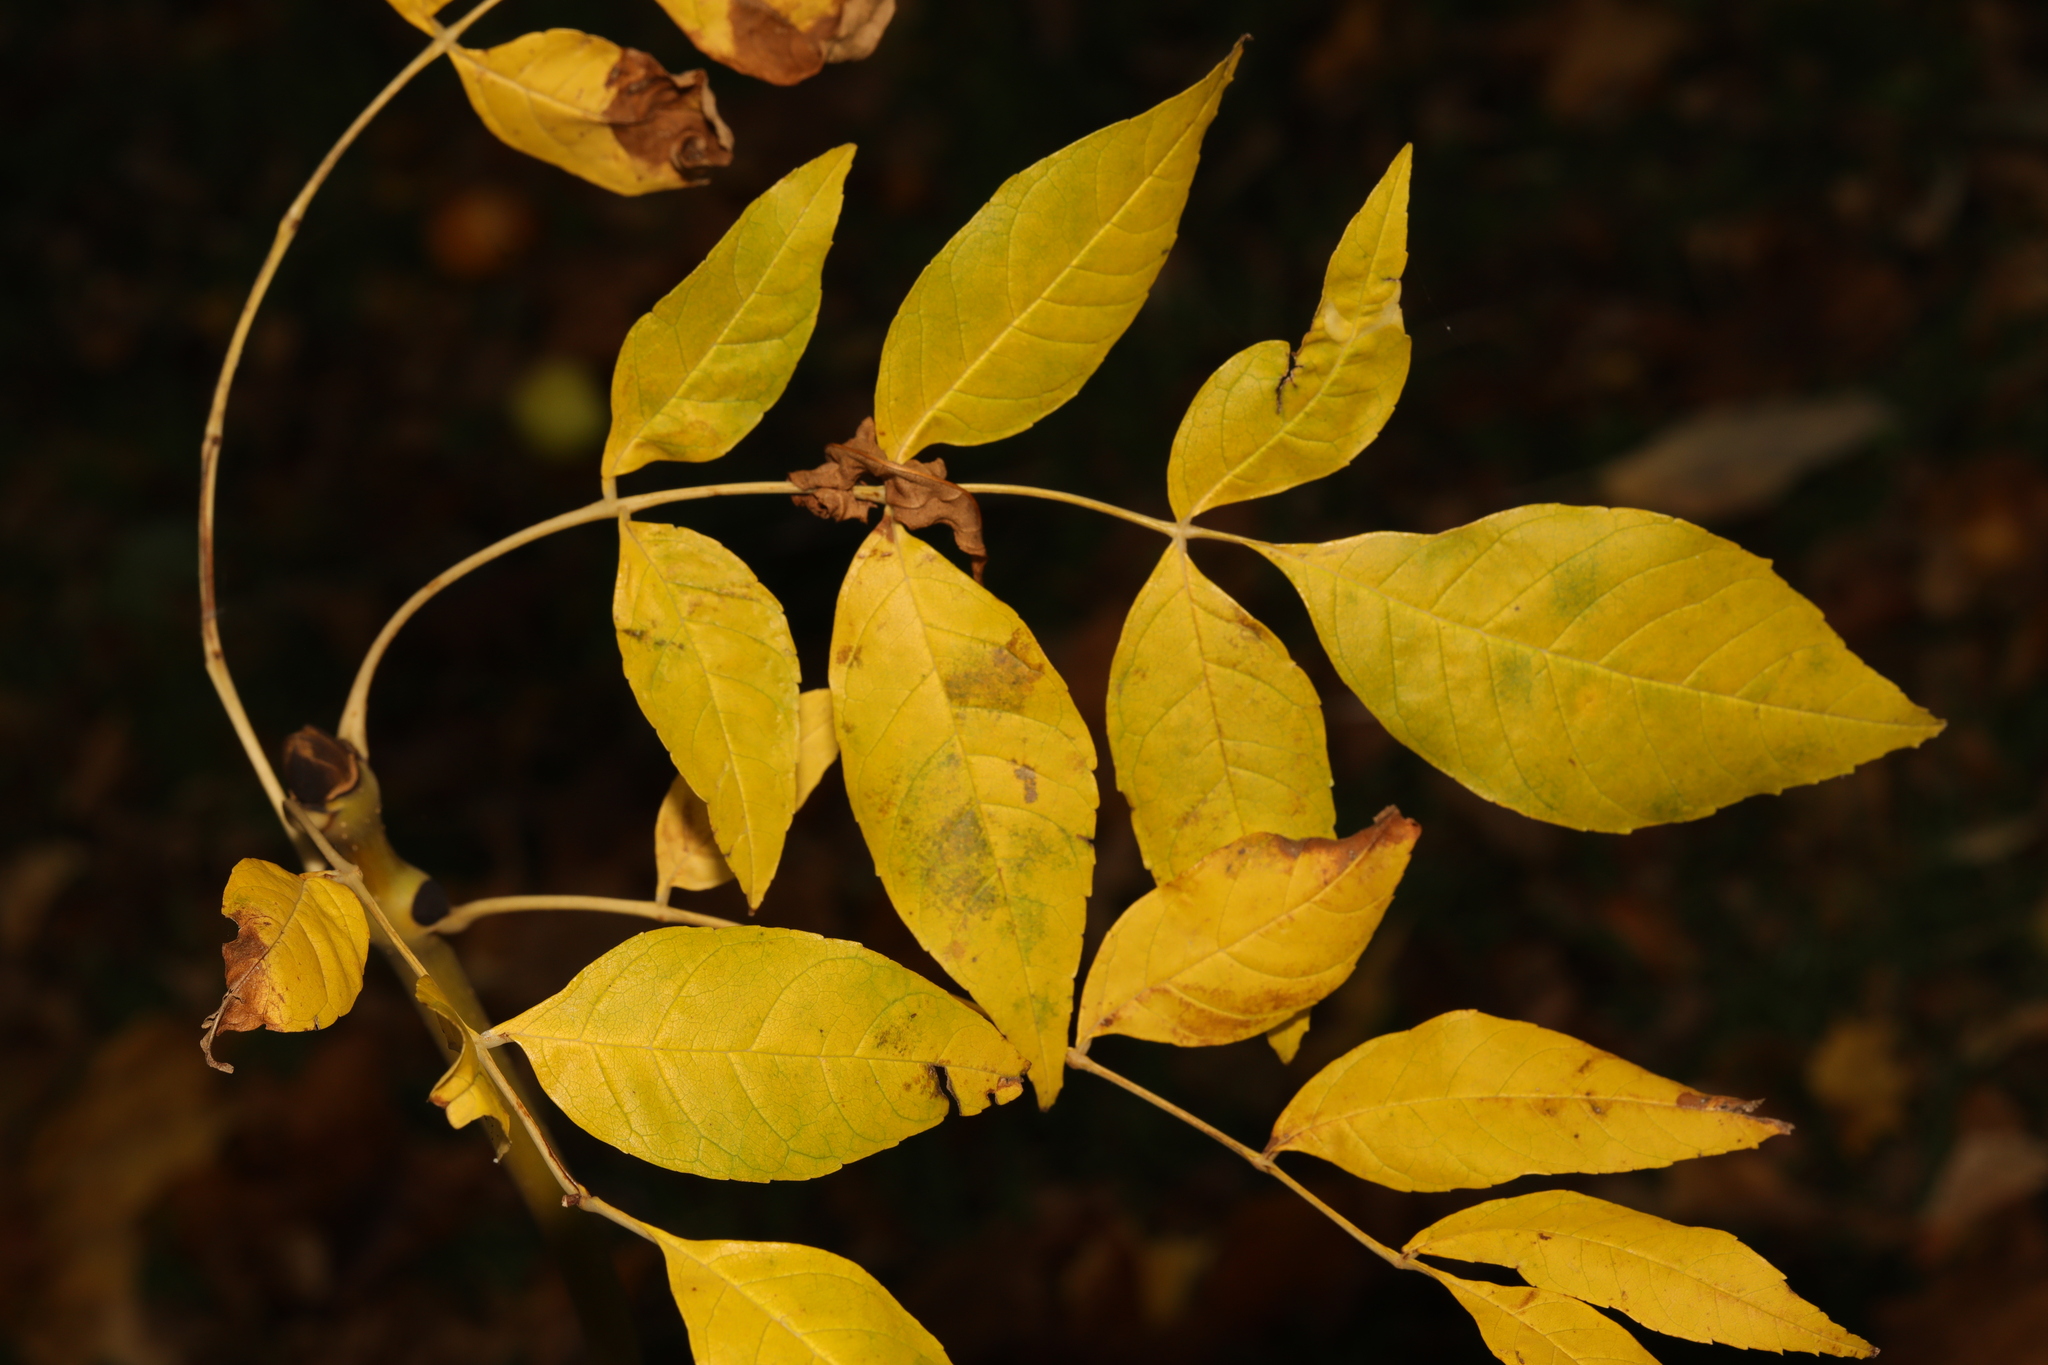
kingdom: Plantae
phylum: Tracheophyta
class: Magnoliopsida
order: Lamiales
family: Oleaceae
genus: Fraxinus
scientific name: Fraxinus excelsior
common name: European ash
